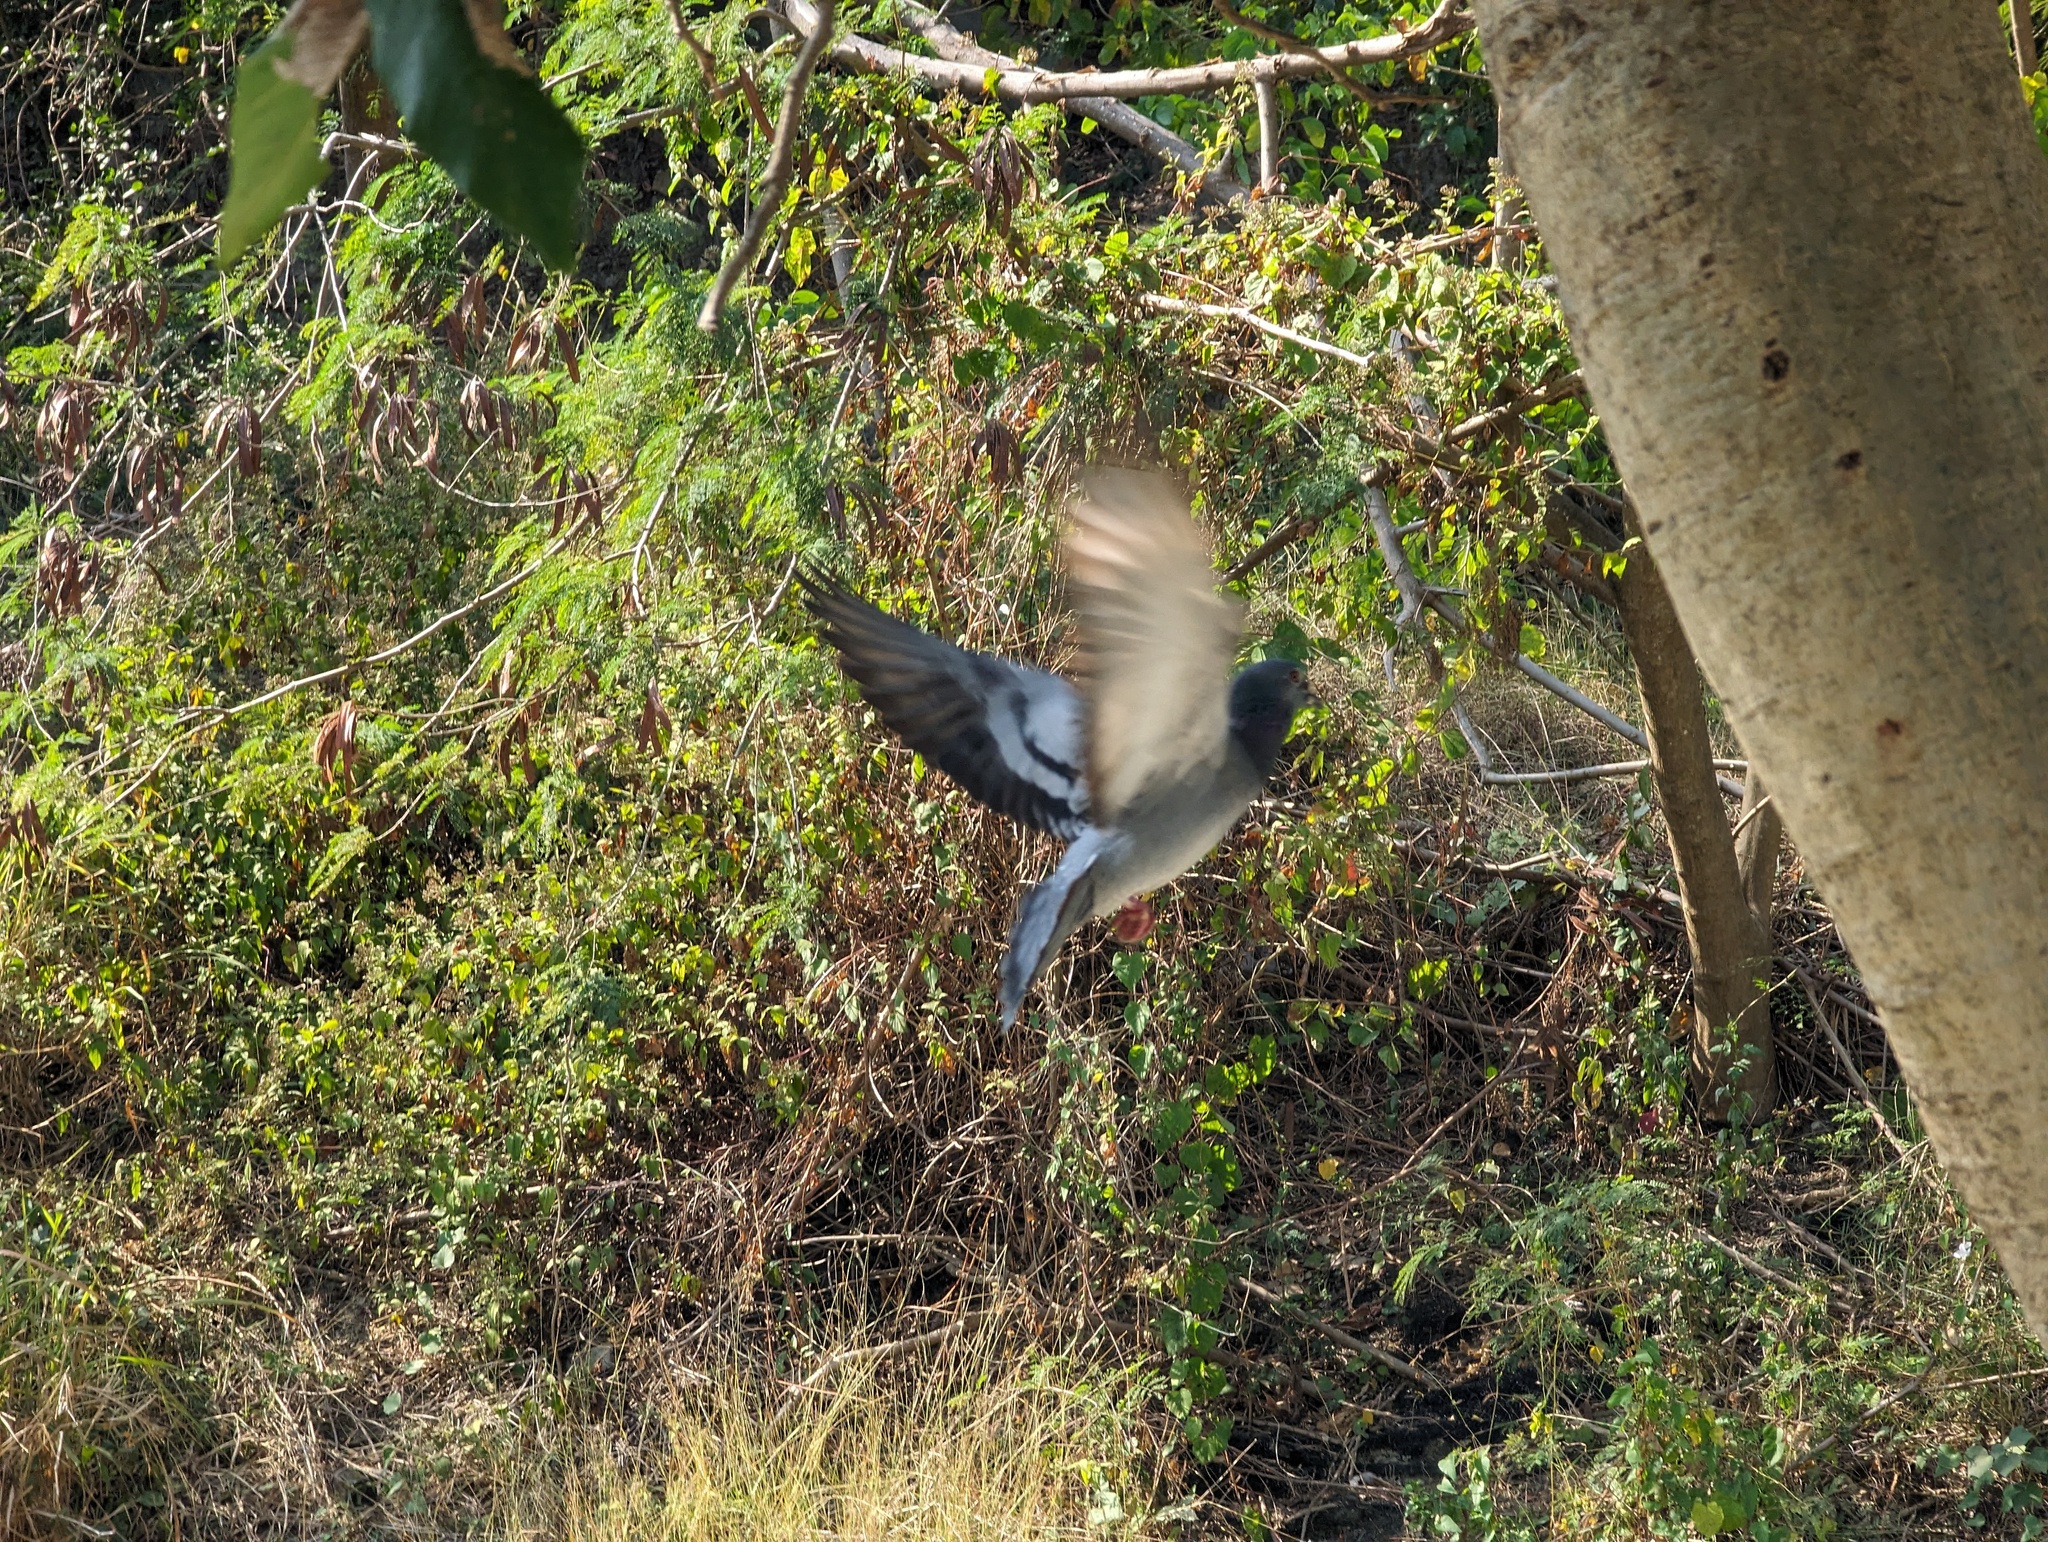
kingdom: Animalia
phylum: Chordata
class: Aves
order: Columbiformes
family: Columbidae
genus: Columba
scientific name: Columba livia
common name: Rock pigeon
